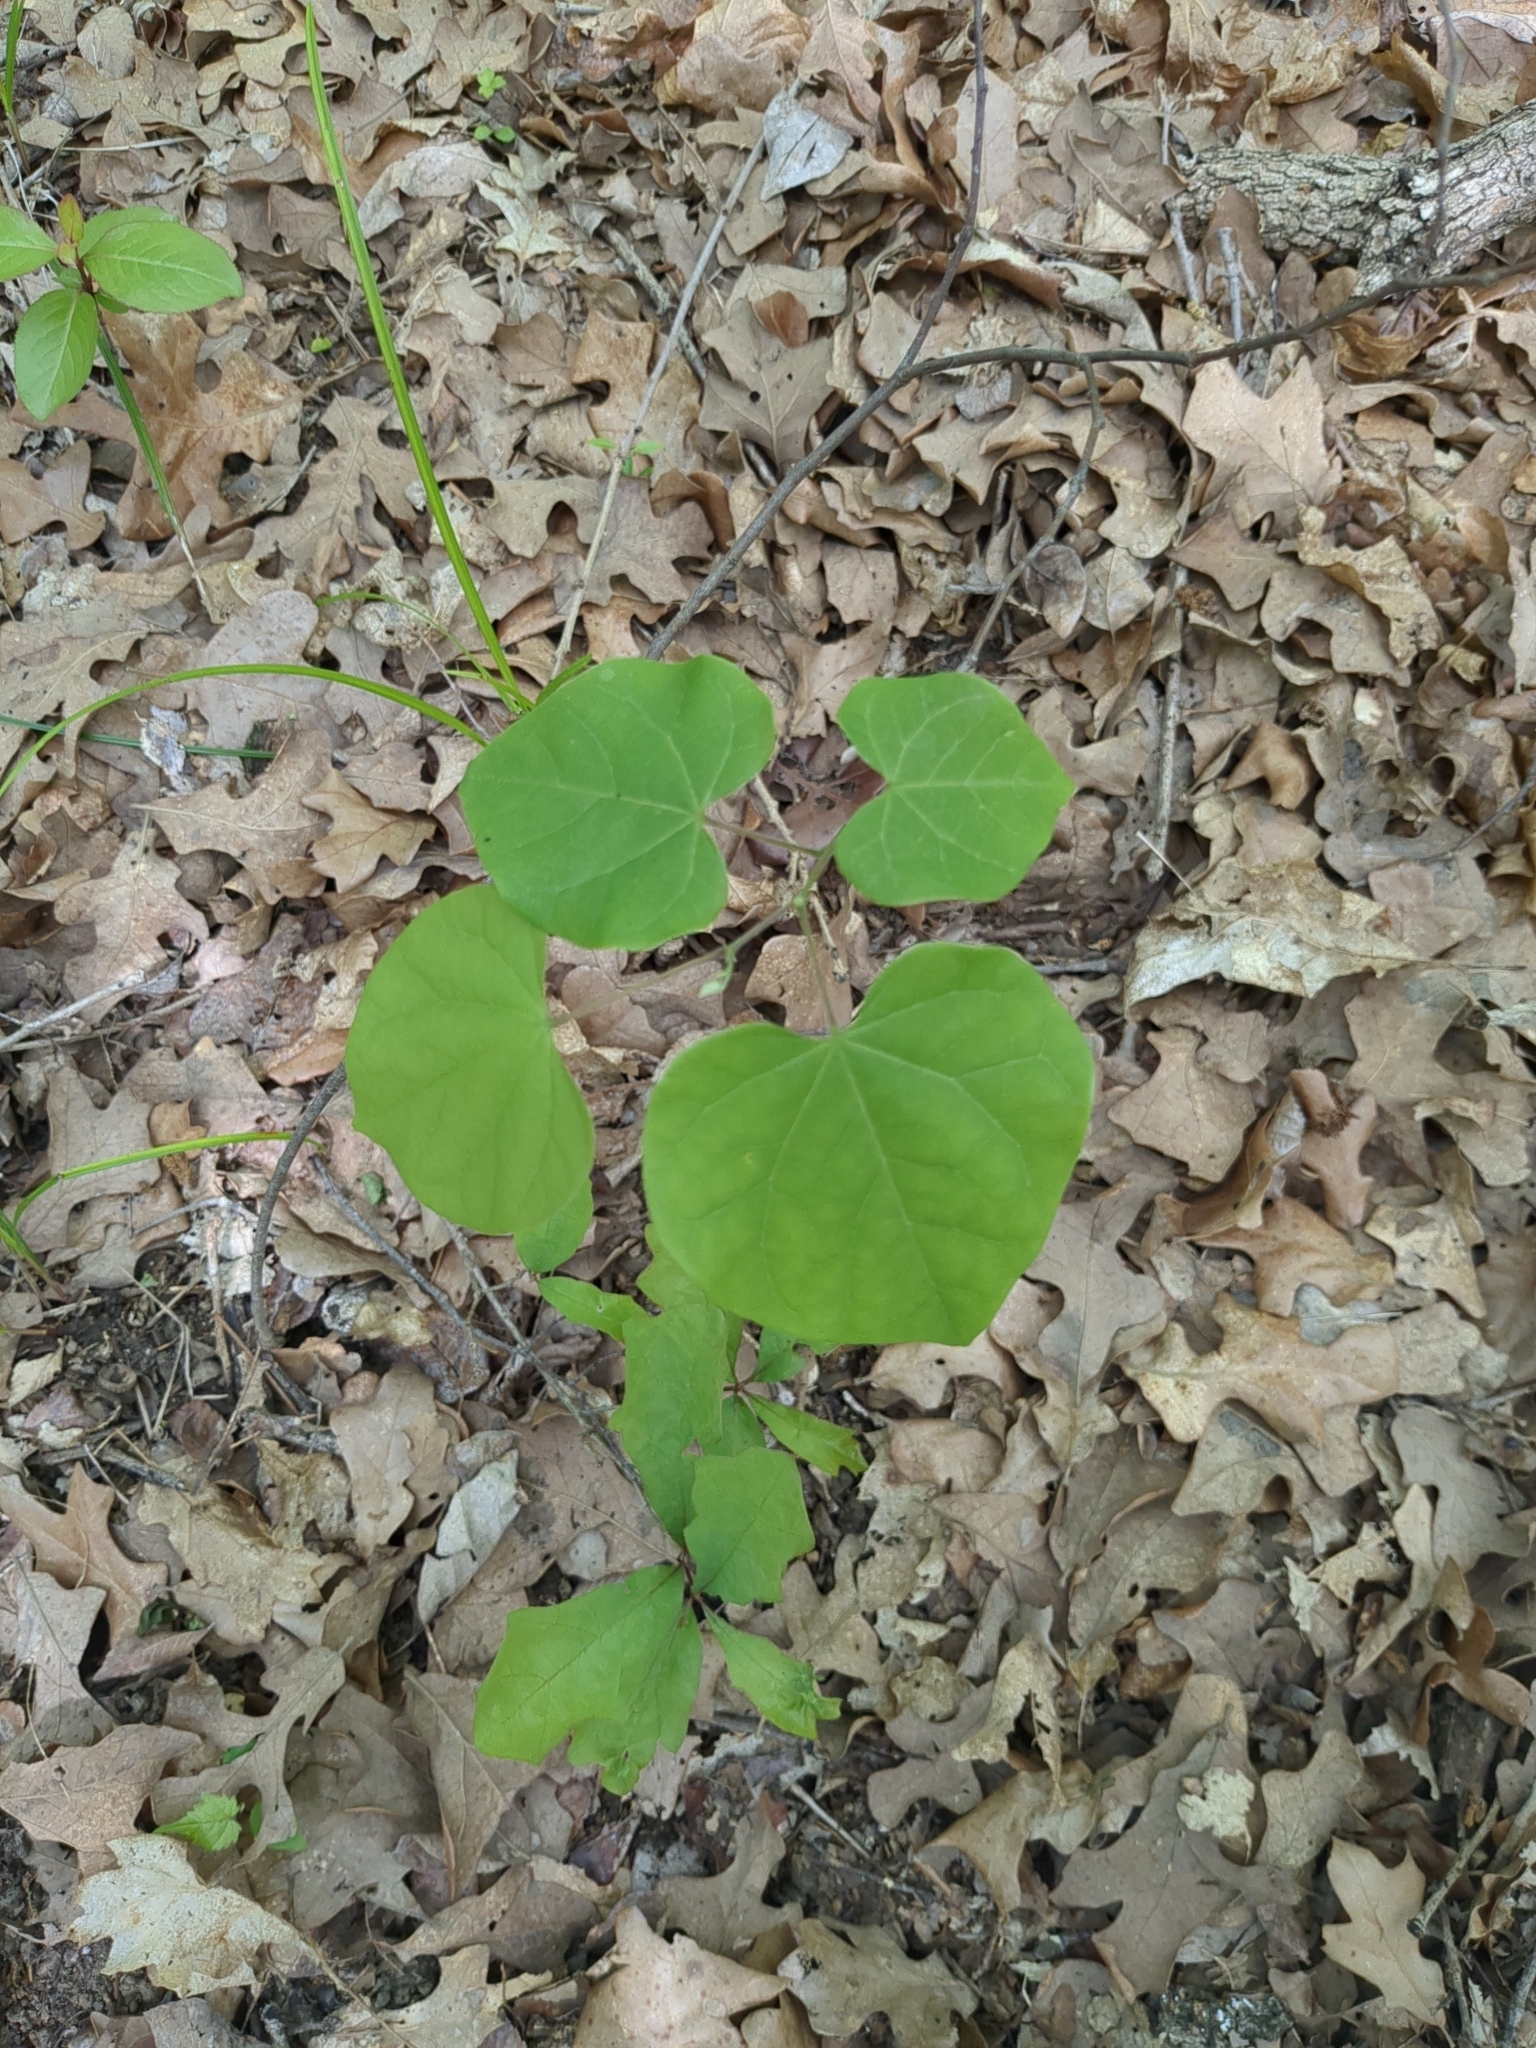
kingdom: Plantae
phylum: Tracheophyta
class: Magnoliopsida
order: Fabales
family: Fabaceae
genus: Cercis
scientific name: Cercis canadensis
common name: Eastern redbud
